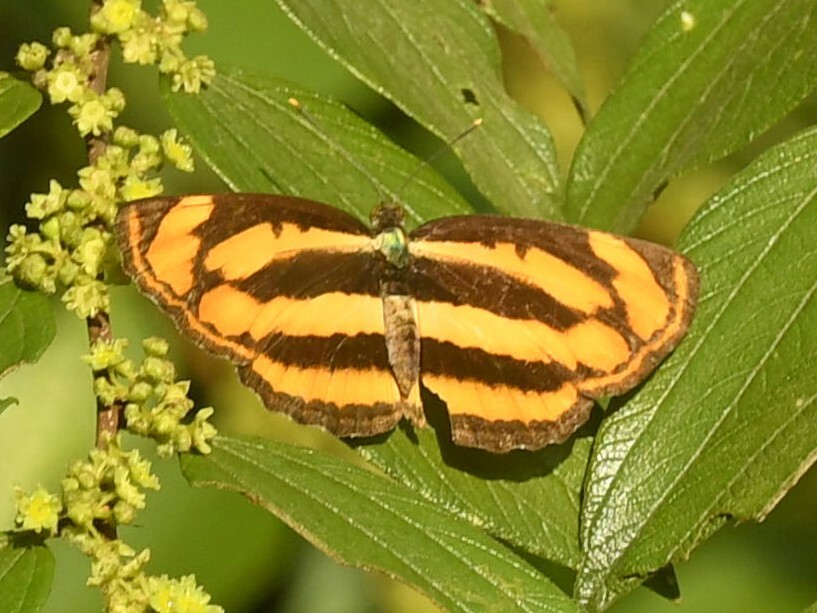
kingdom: Animalia
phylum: Arthropoda
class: Insecta
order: Lepidoptera
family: Nymphalidae
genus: Pantoporia
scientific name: Pantoporia hordonia
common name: Common lascar
